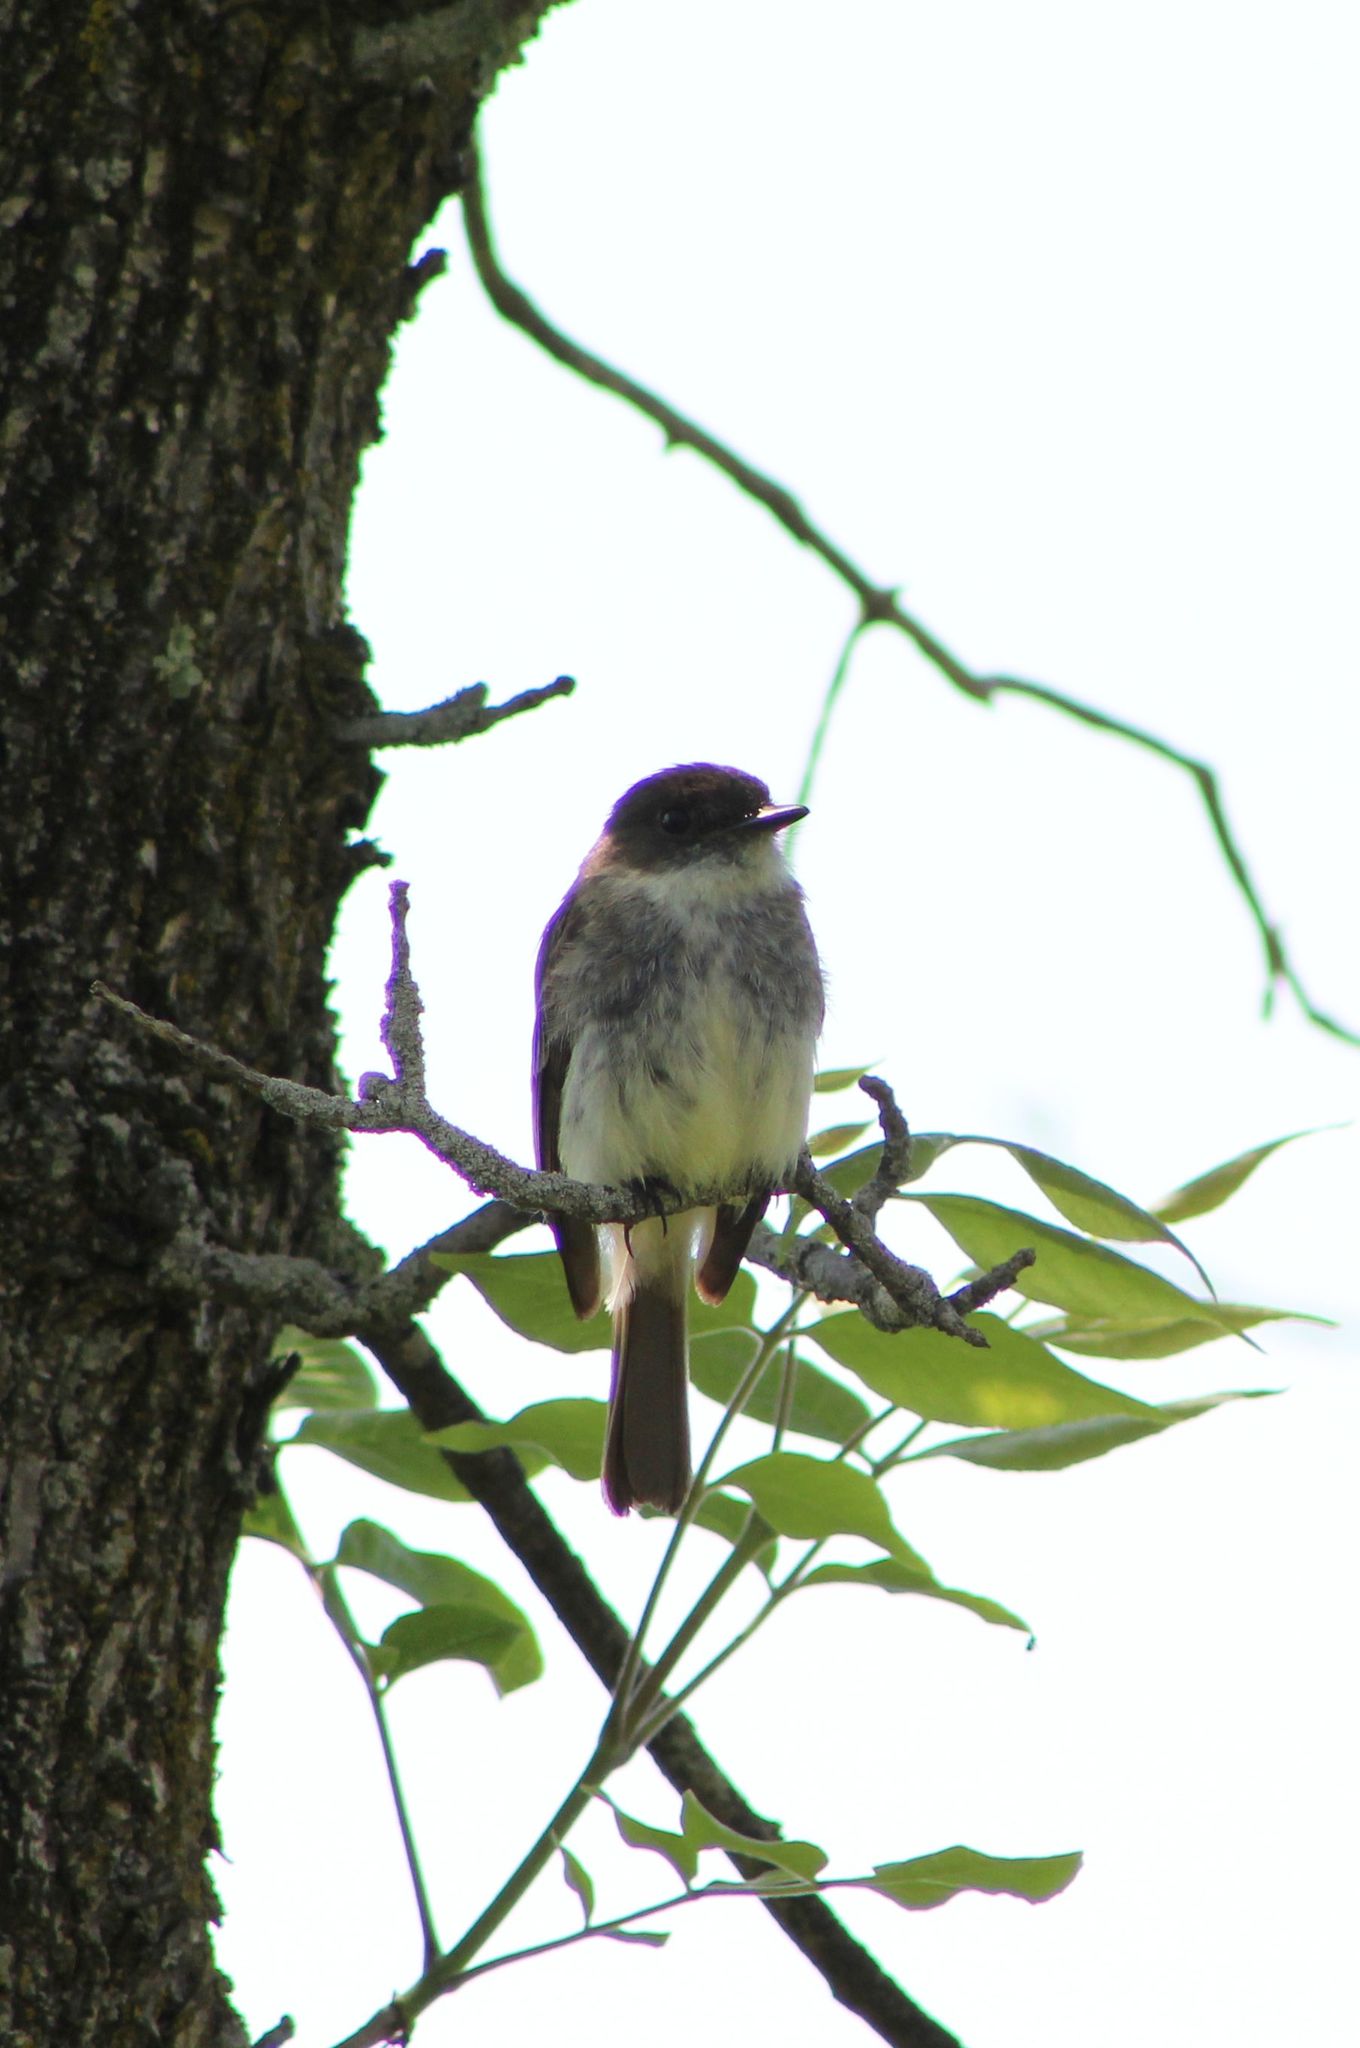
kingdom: Animalia
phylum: Chordata
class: Aves
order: Passeriformes
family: Tyrannidae
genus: Sayornis
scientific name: Sayornis phoebe
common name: Eastern phoebe
